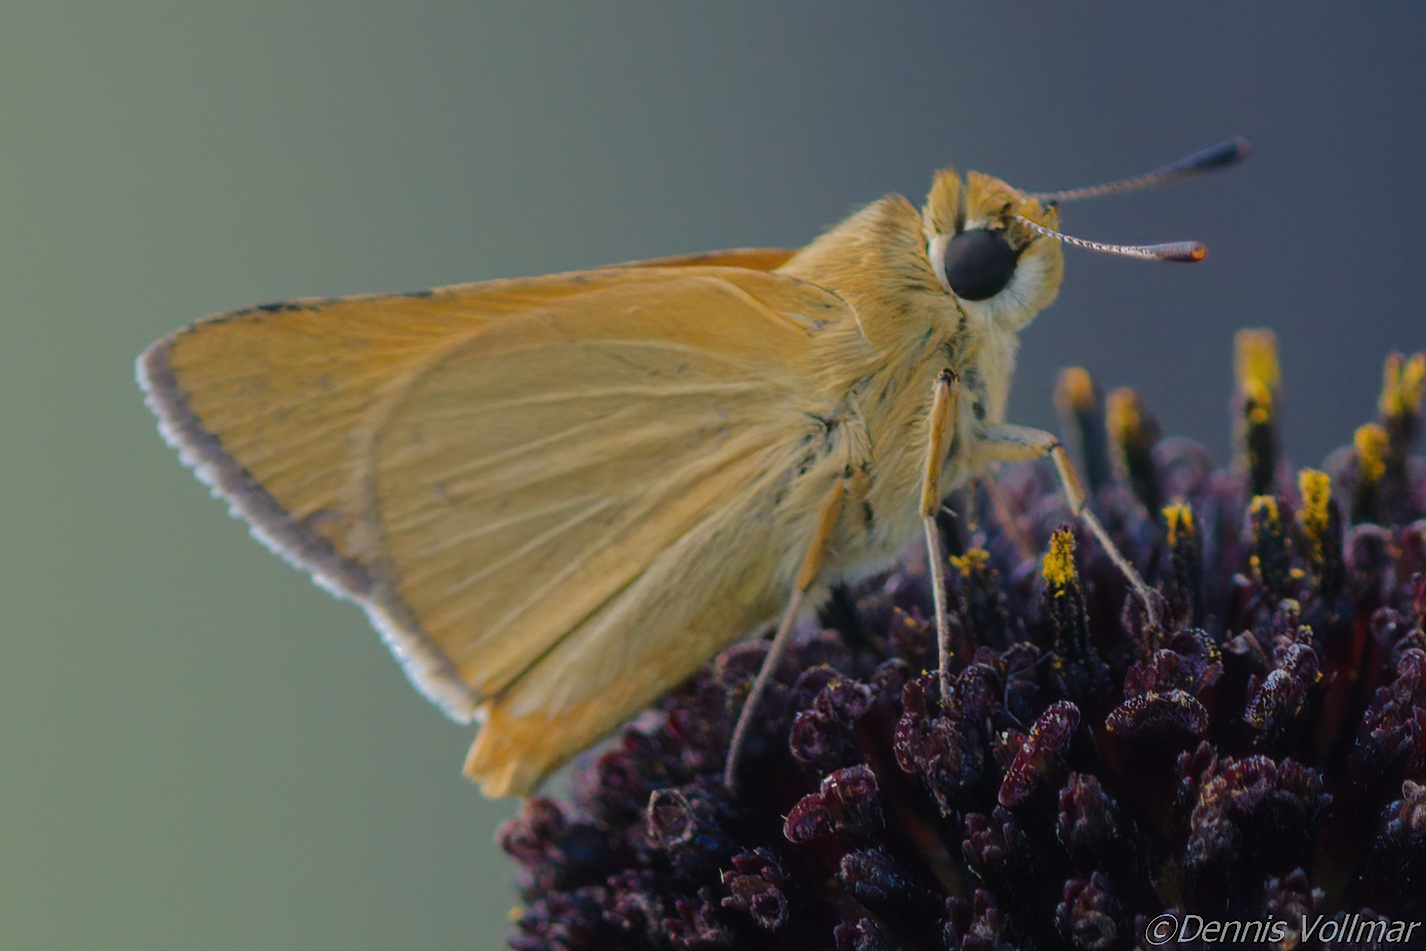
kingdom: Animalia
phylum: Arthropoda
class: Insecta
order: Lepidoptera
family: Hesperiidae
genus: Atrytone
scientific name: Atrytone arogos
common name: Arogos skipper
